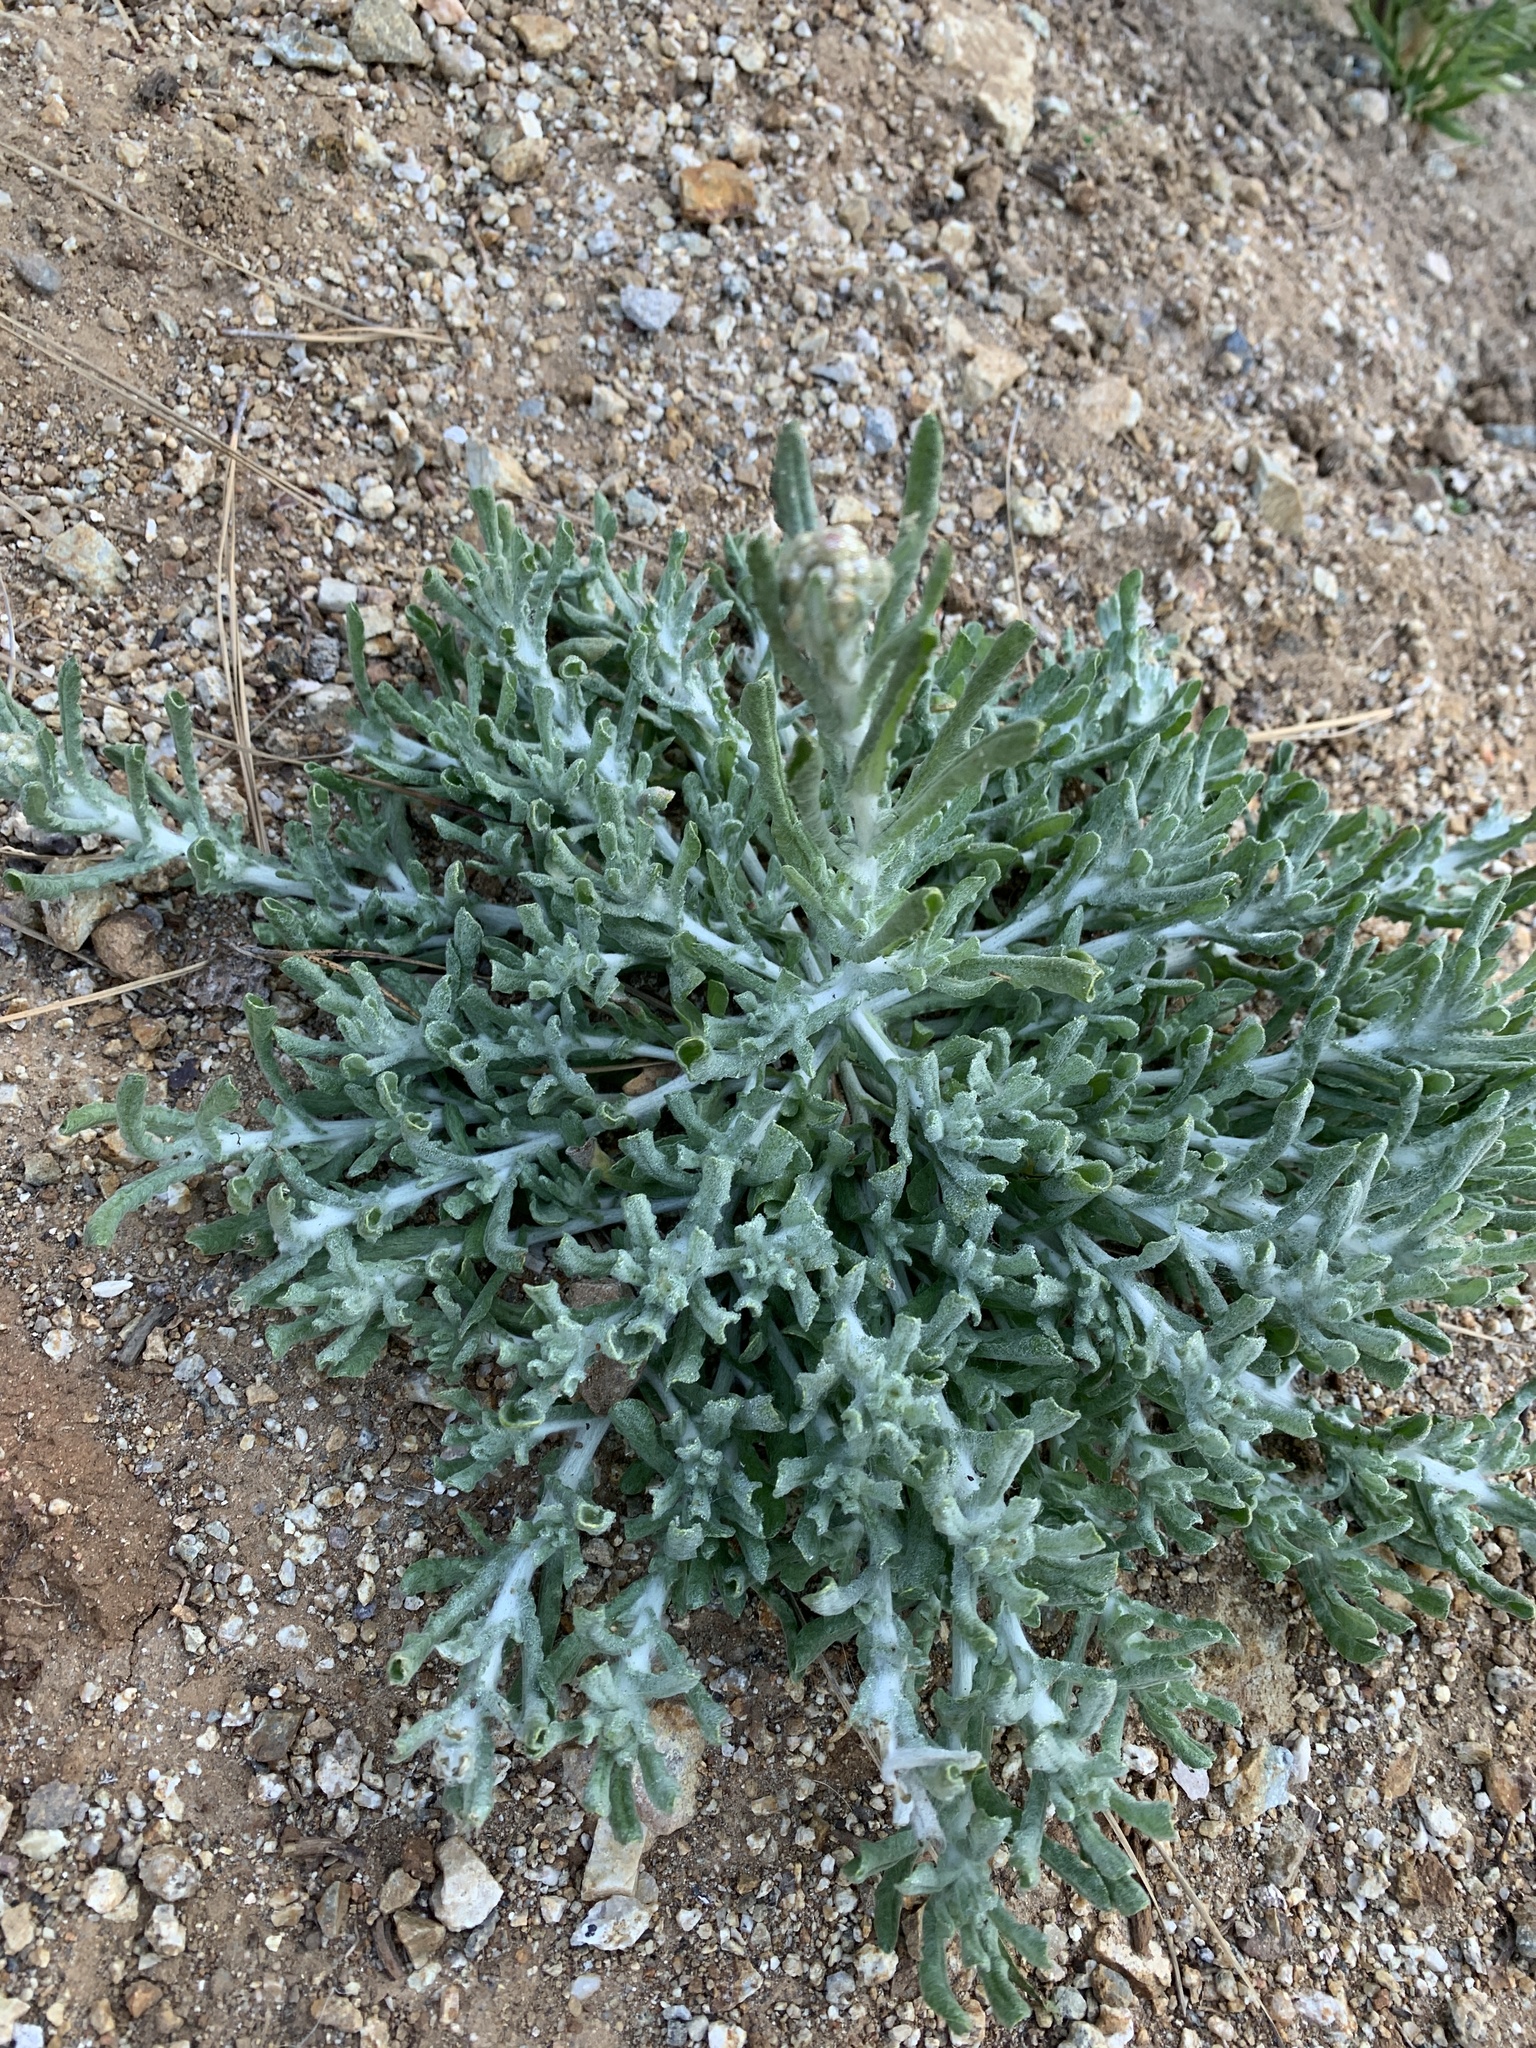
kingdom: Plantae
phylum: Tracheophyta
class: Magnoliopsida
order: Asterales
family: Asteraceae
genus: Helichrysum
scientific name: Helichrysum luteoalbum
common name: Daisy
